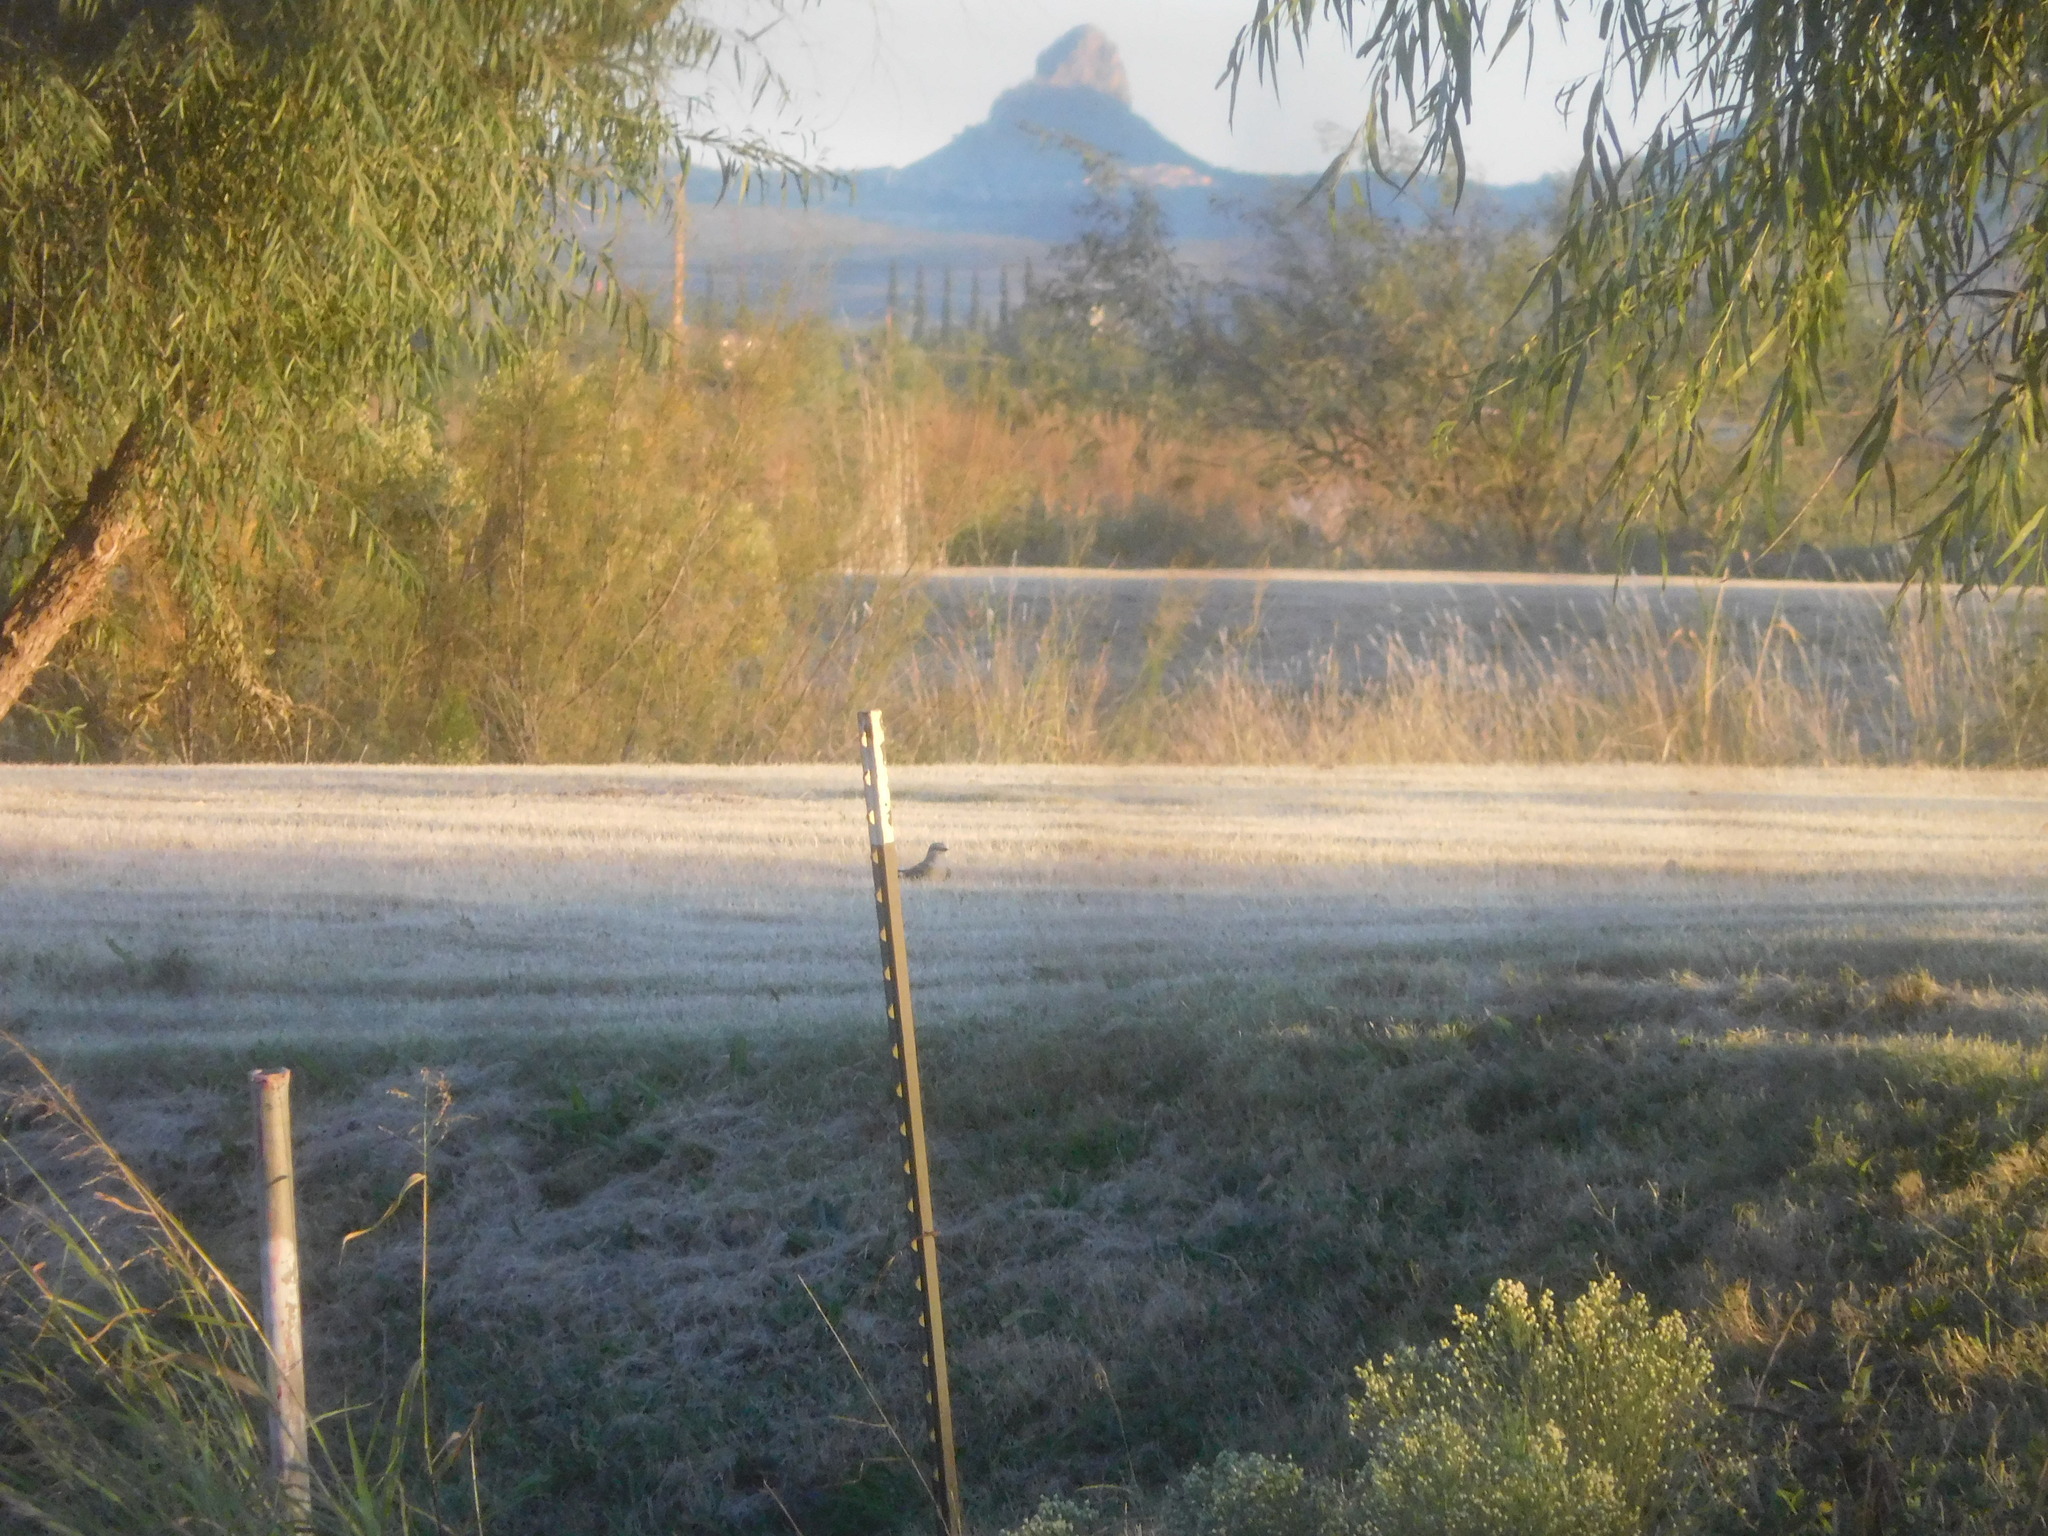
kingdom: Animalia
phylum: Chordata
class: Aves
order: Passeriformes
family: Tyrannidae
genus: Tyrannus
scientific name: Tyrannus verticalis
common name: Western kingbird
